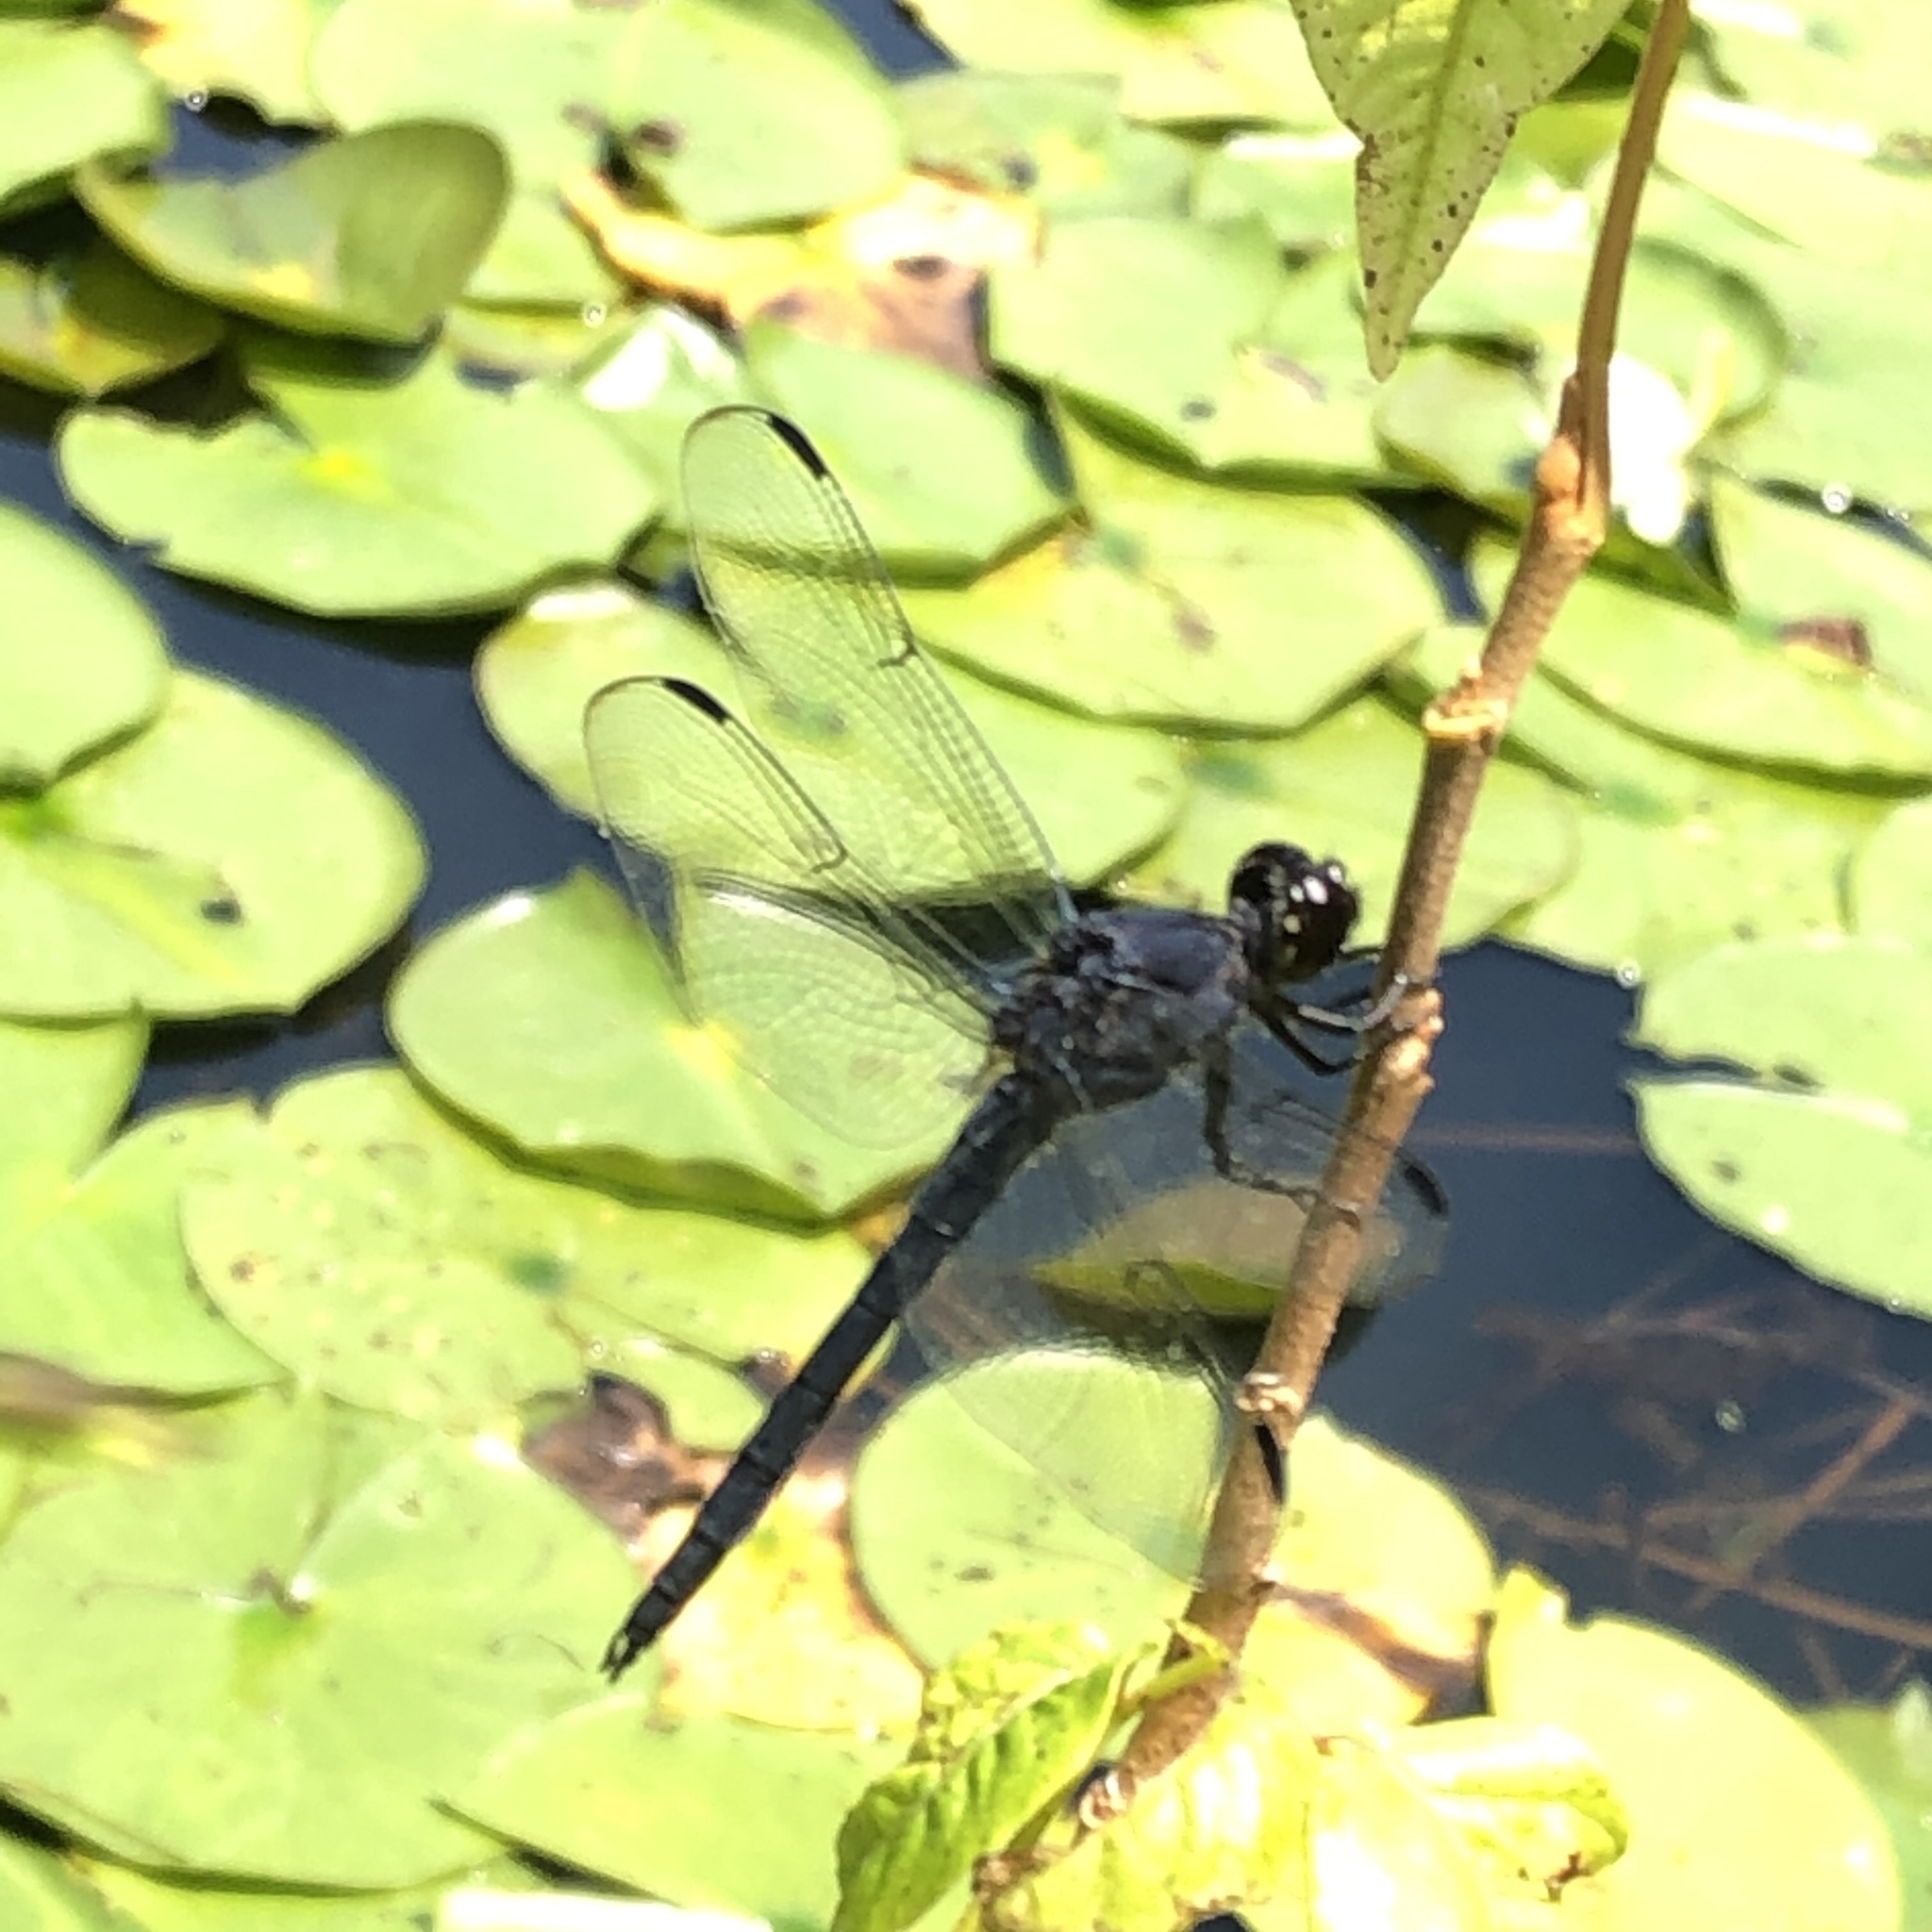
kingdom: Animalia
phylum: Arthropoda
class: Insecta
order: Odonata
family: Libellulidae
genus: Libellula
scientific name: Libellula incesta
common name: Slaty skimmer
